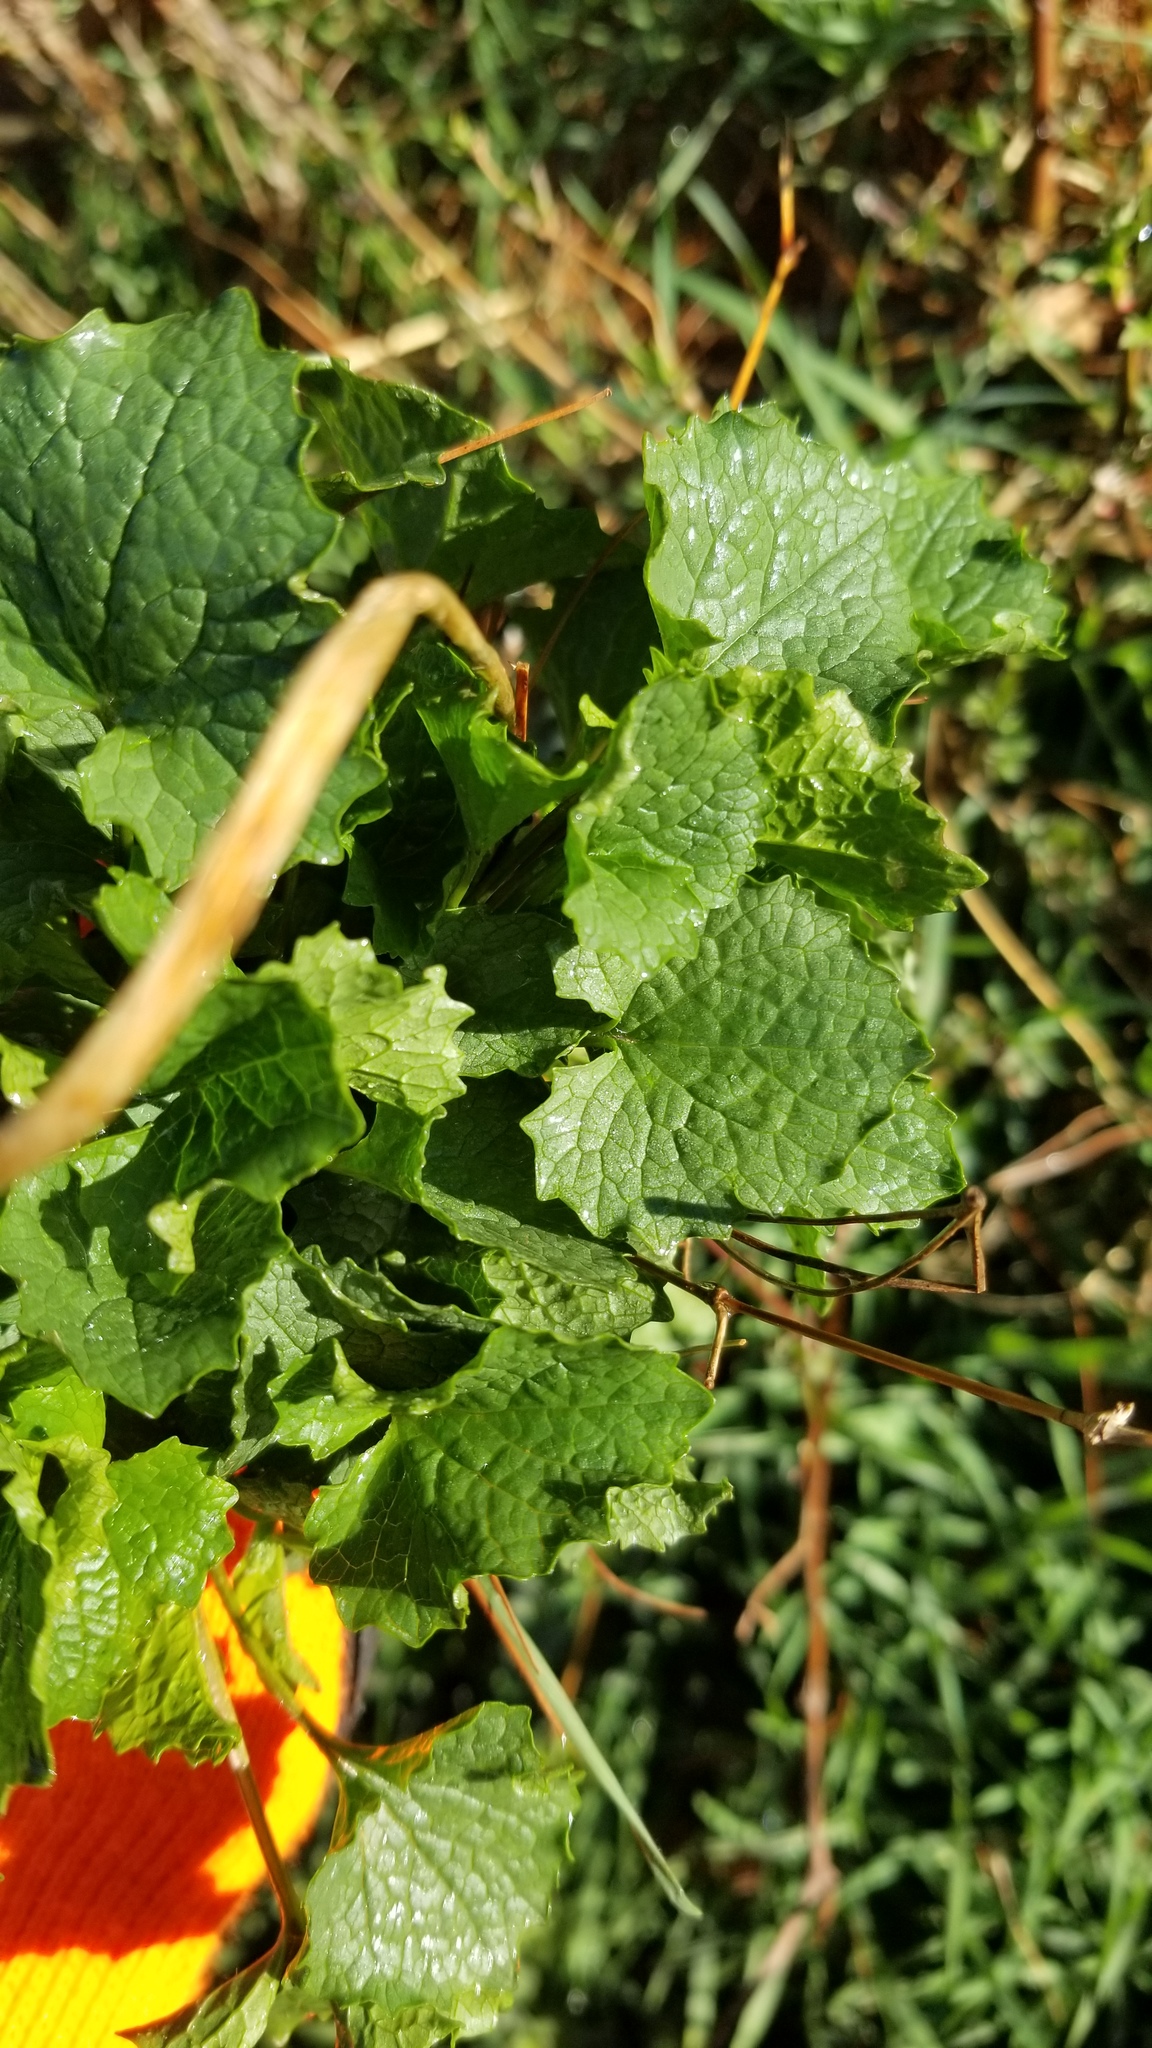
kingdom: Plantae
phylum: Tracheophyta
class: Magnoliopsida
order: Brassicales
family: Brassicaceae
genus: Alliaria
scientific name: Alliaria petiolata
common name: Garlic mustard
